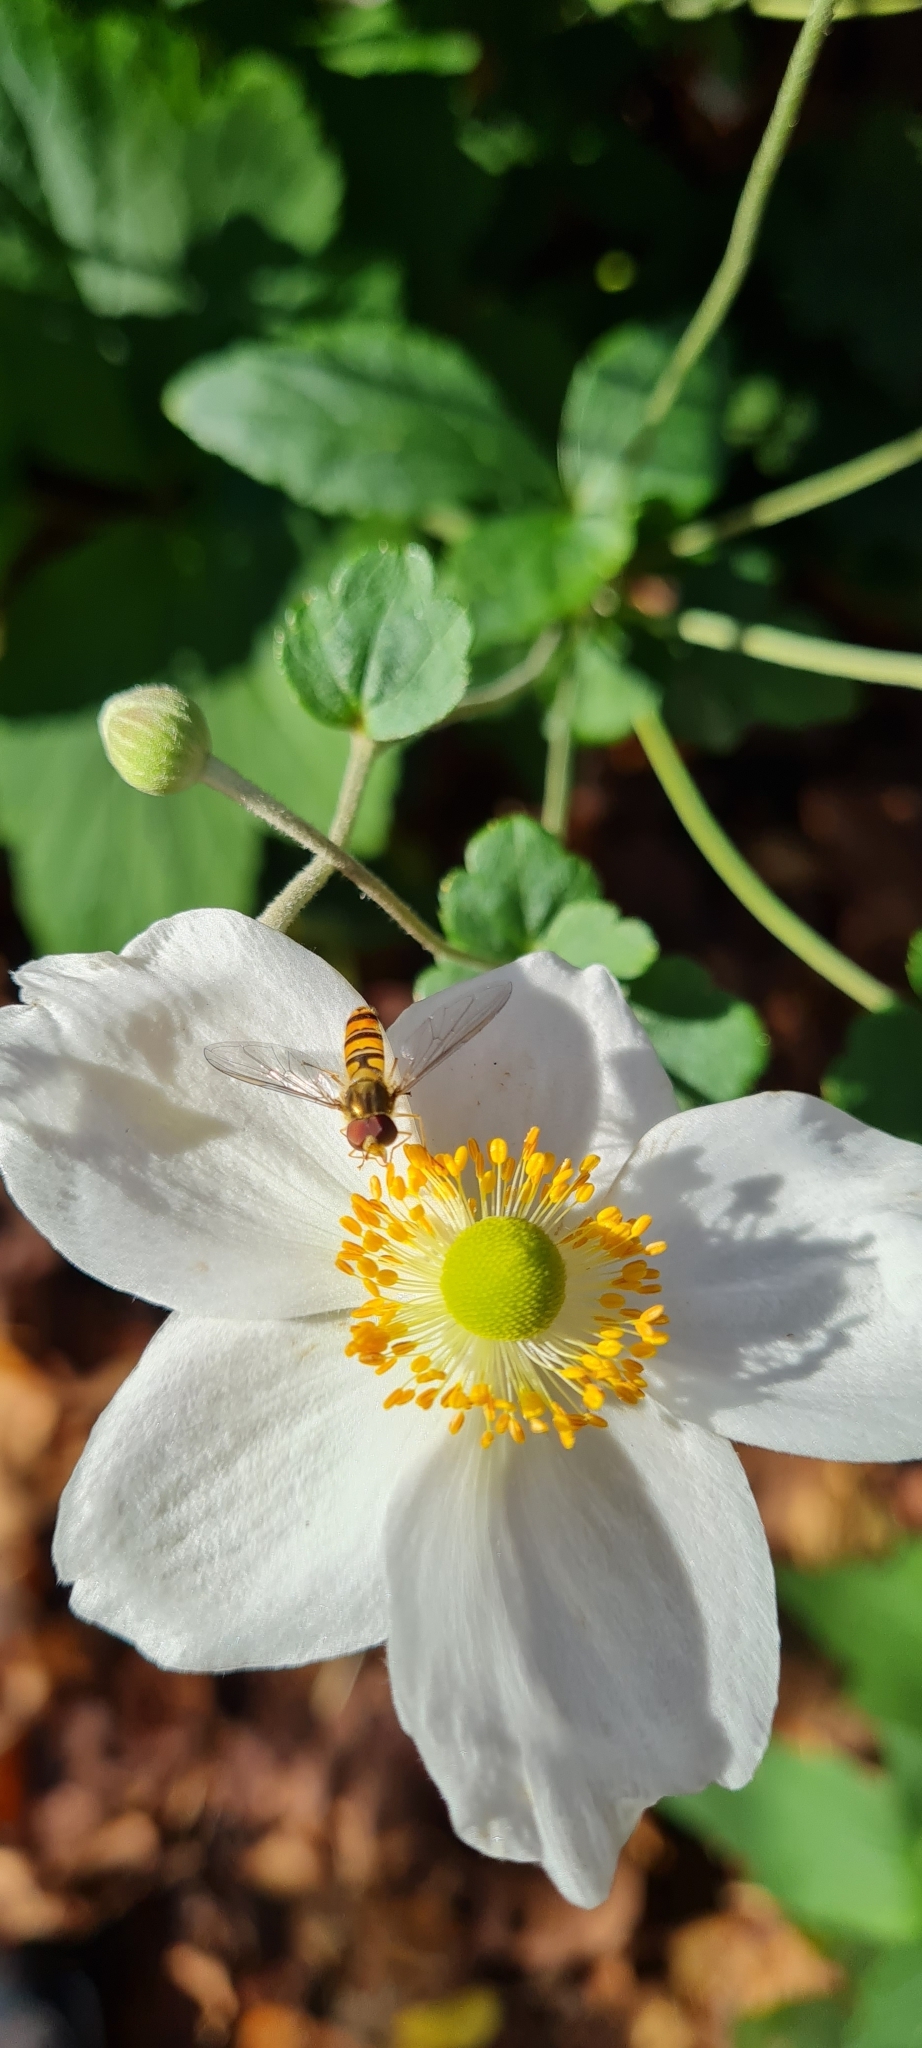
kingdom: Animalia
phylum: Arthropoda
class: Insecta
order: Diptera
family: Syrphidae
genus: Episyrphus
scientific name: Episyrphus balteatus
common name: Marmalade hoverfly
